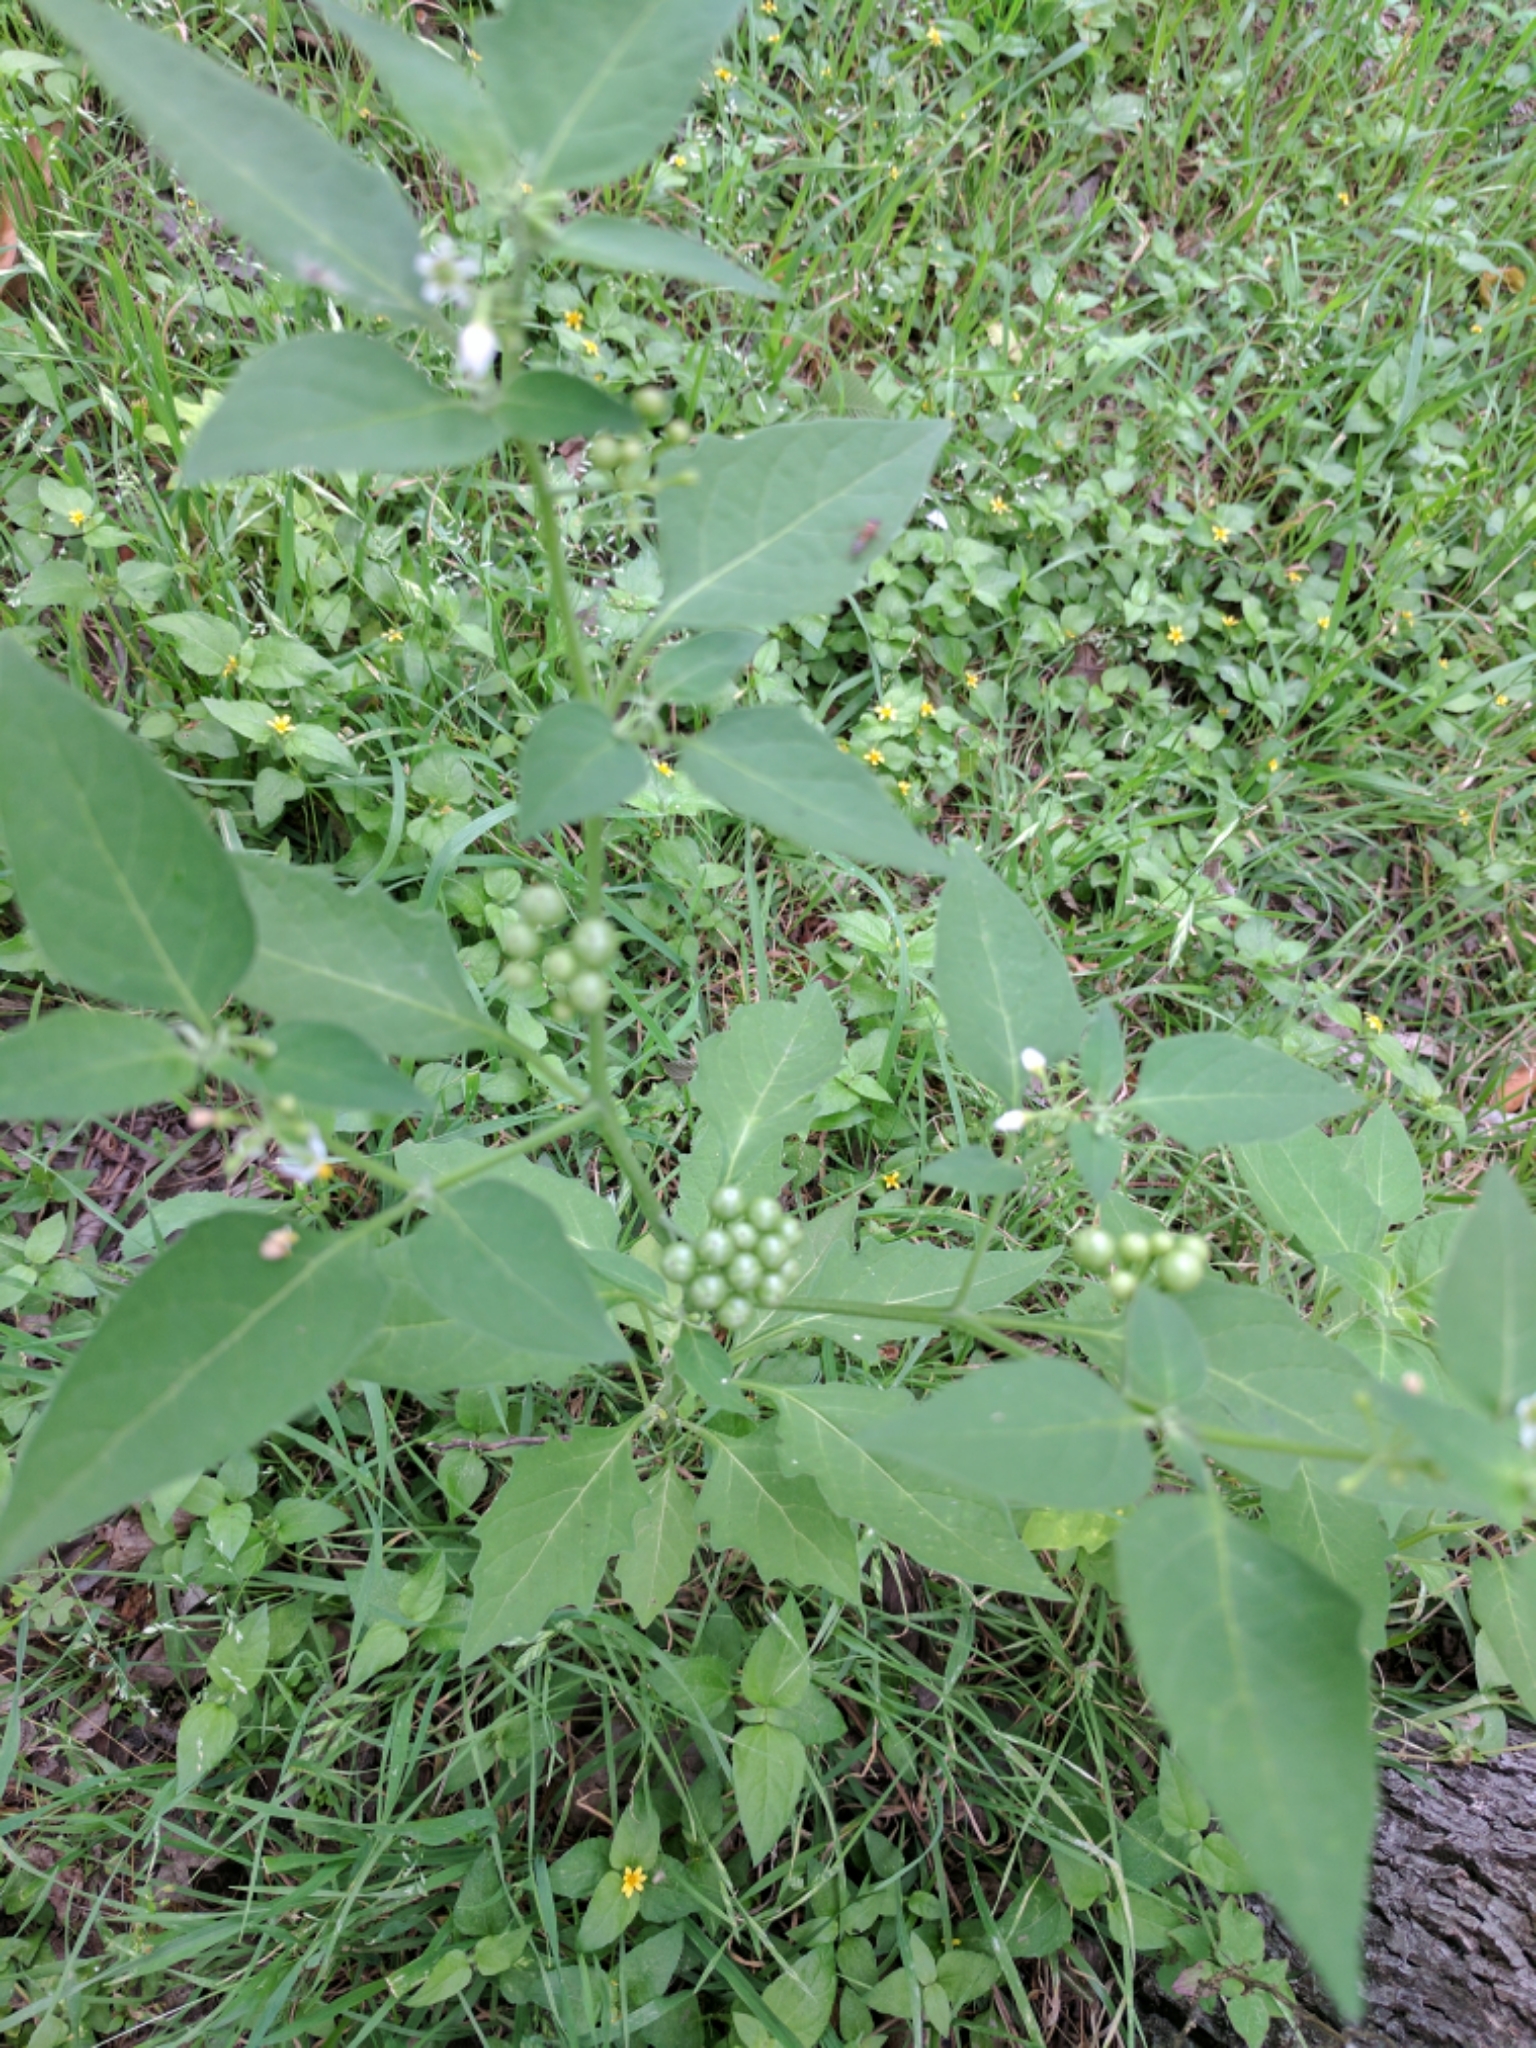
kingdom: Plantae
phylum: Tracheophyta
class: Magnoliopsida
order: Solanales
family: Solanaceae
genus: Solanum
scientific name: Solanum
